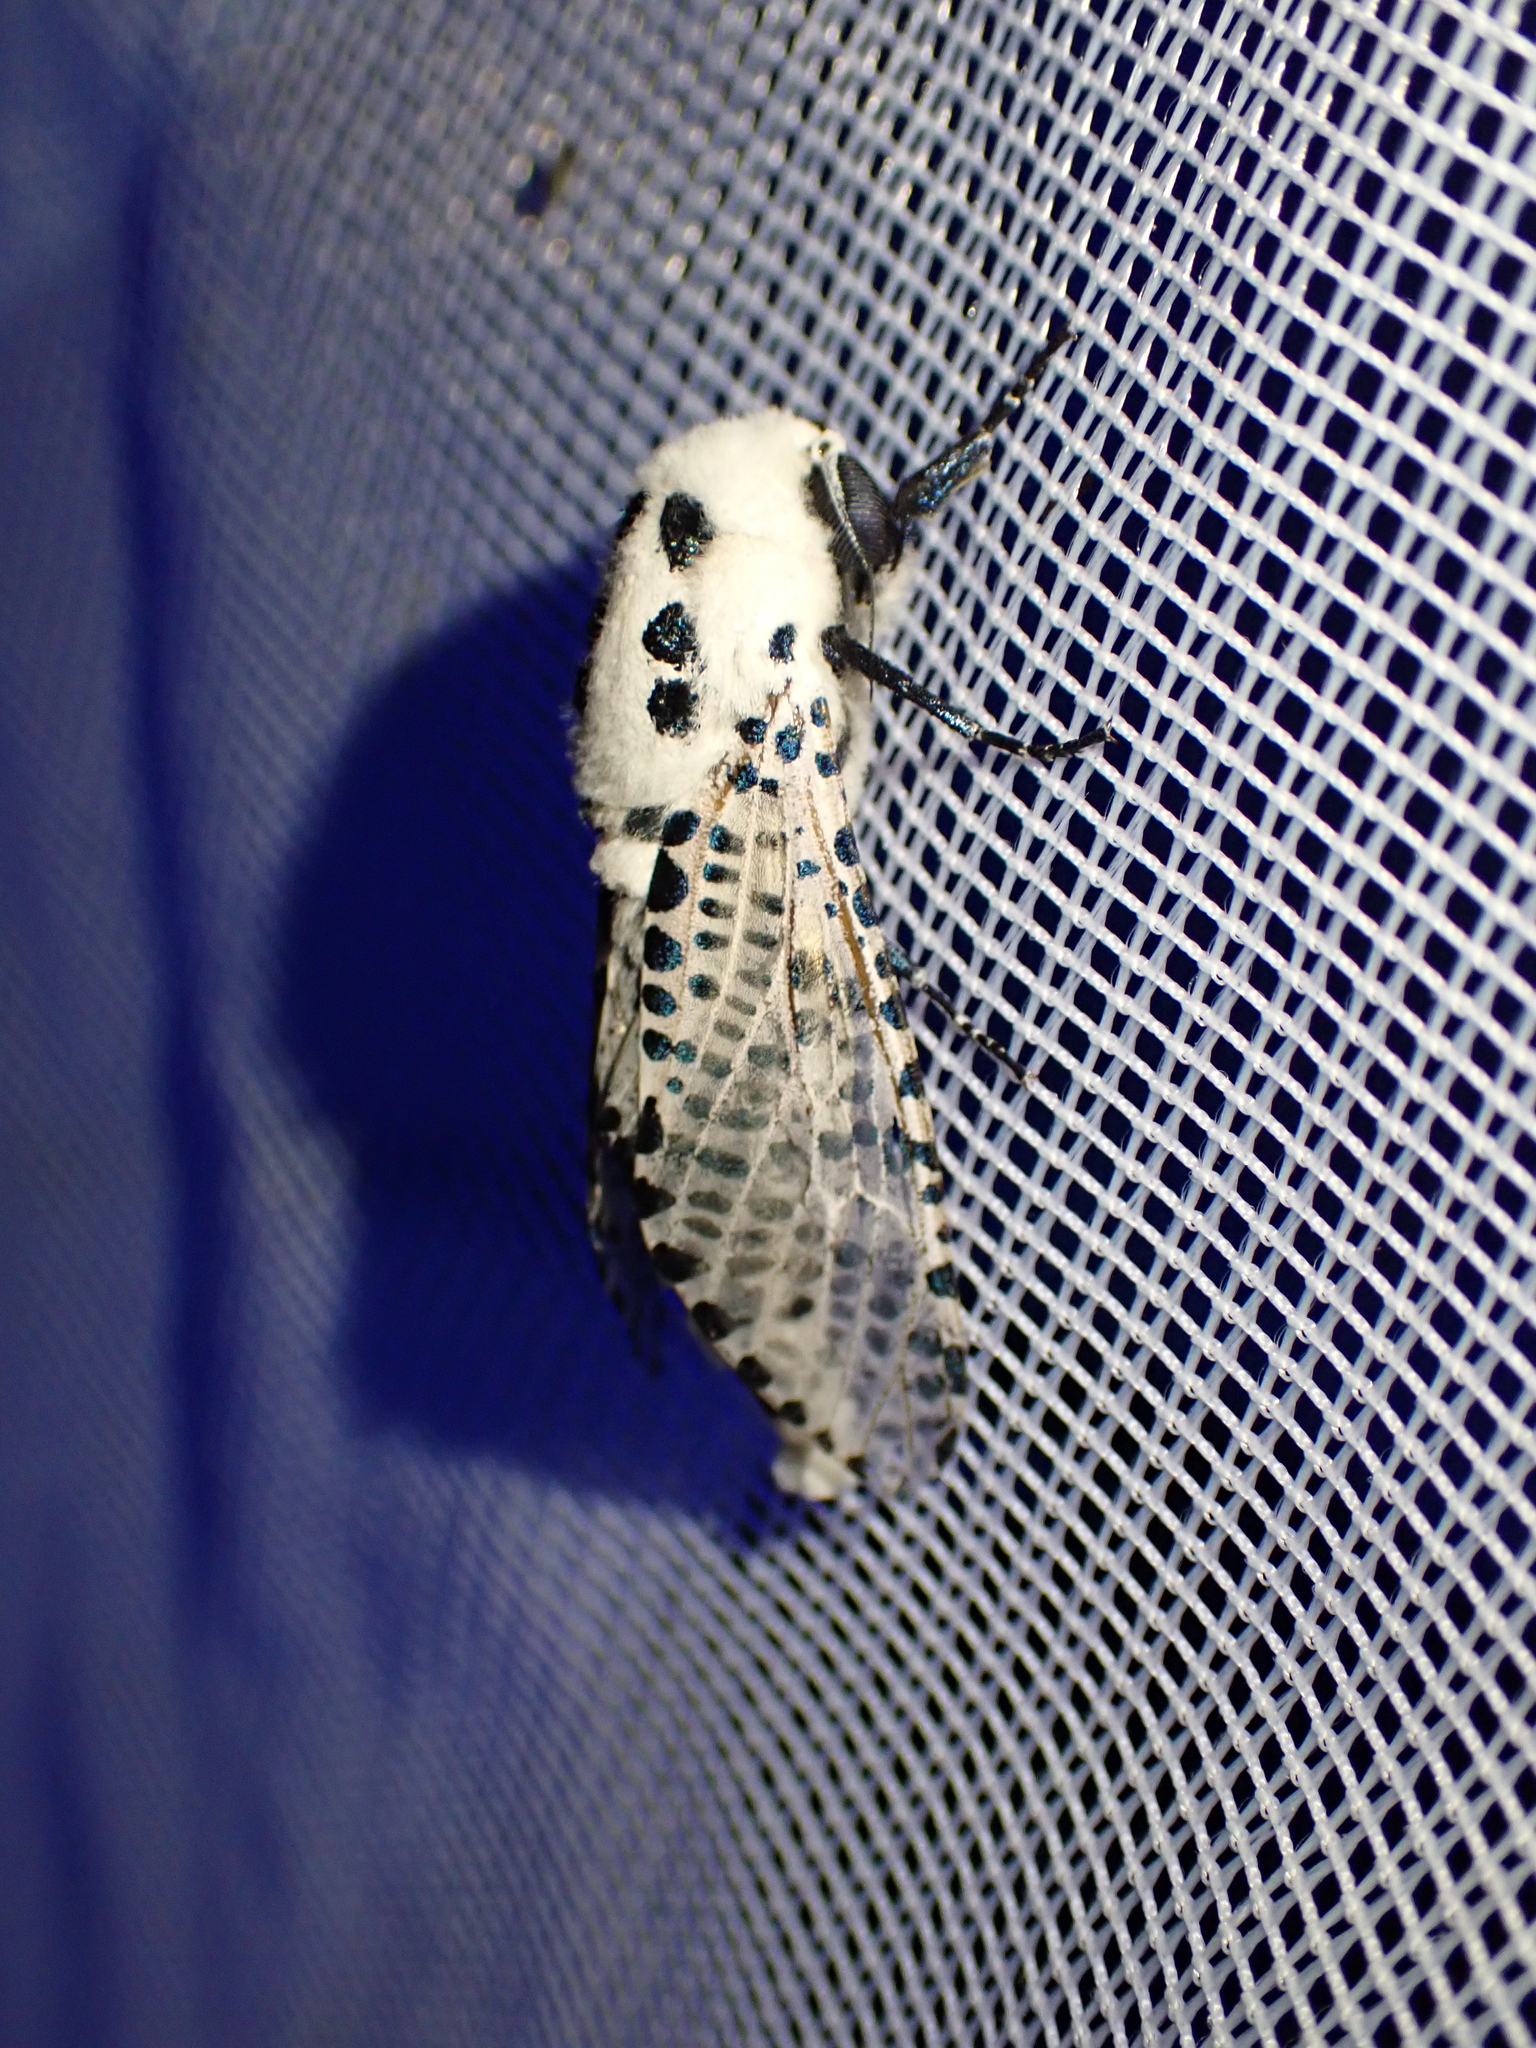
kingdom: Animalia
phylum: Arthropoda
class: Insecta
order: Lepidoptera
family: Cossidae
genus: Zeuzera
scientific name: Zeuzera pyrina
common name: Leopard moth
